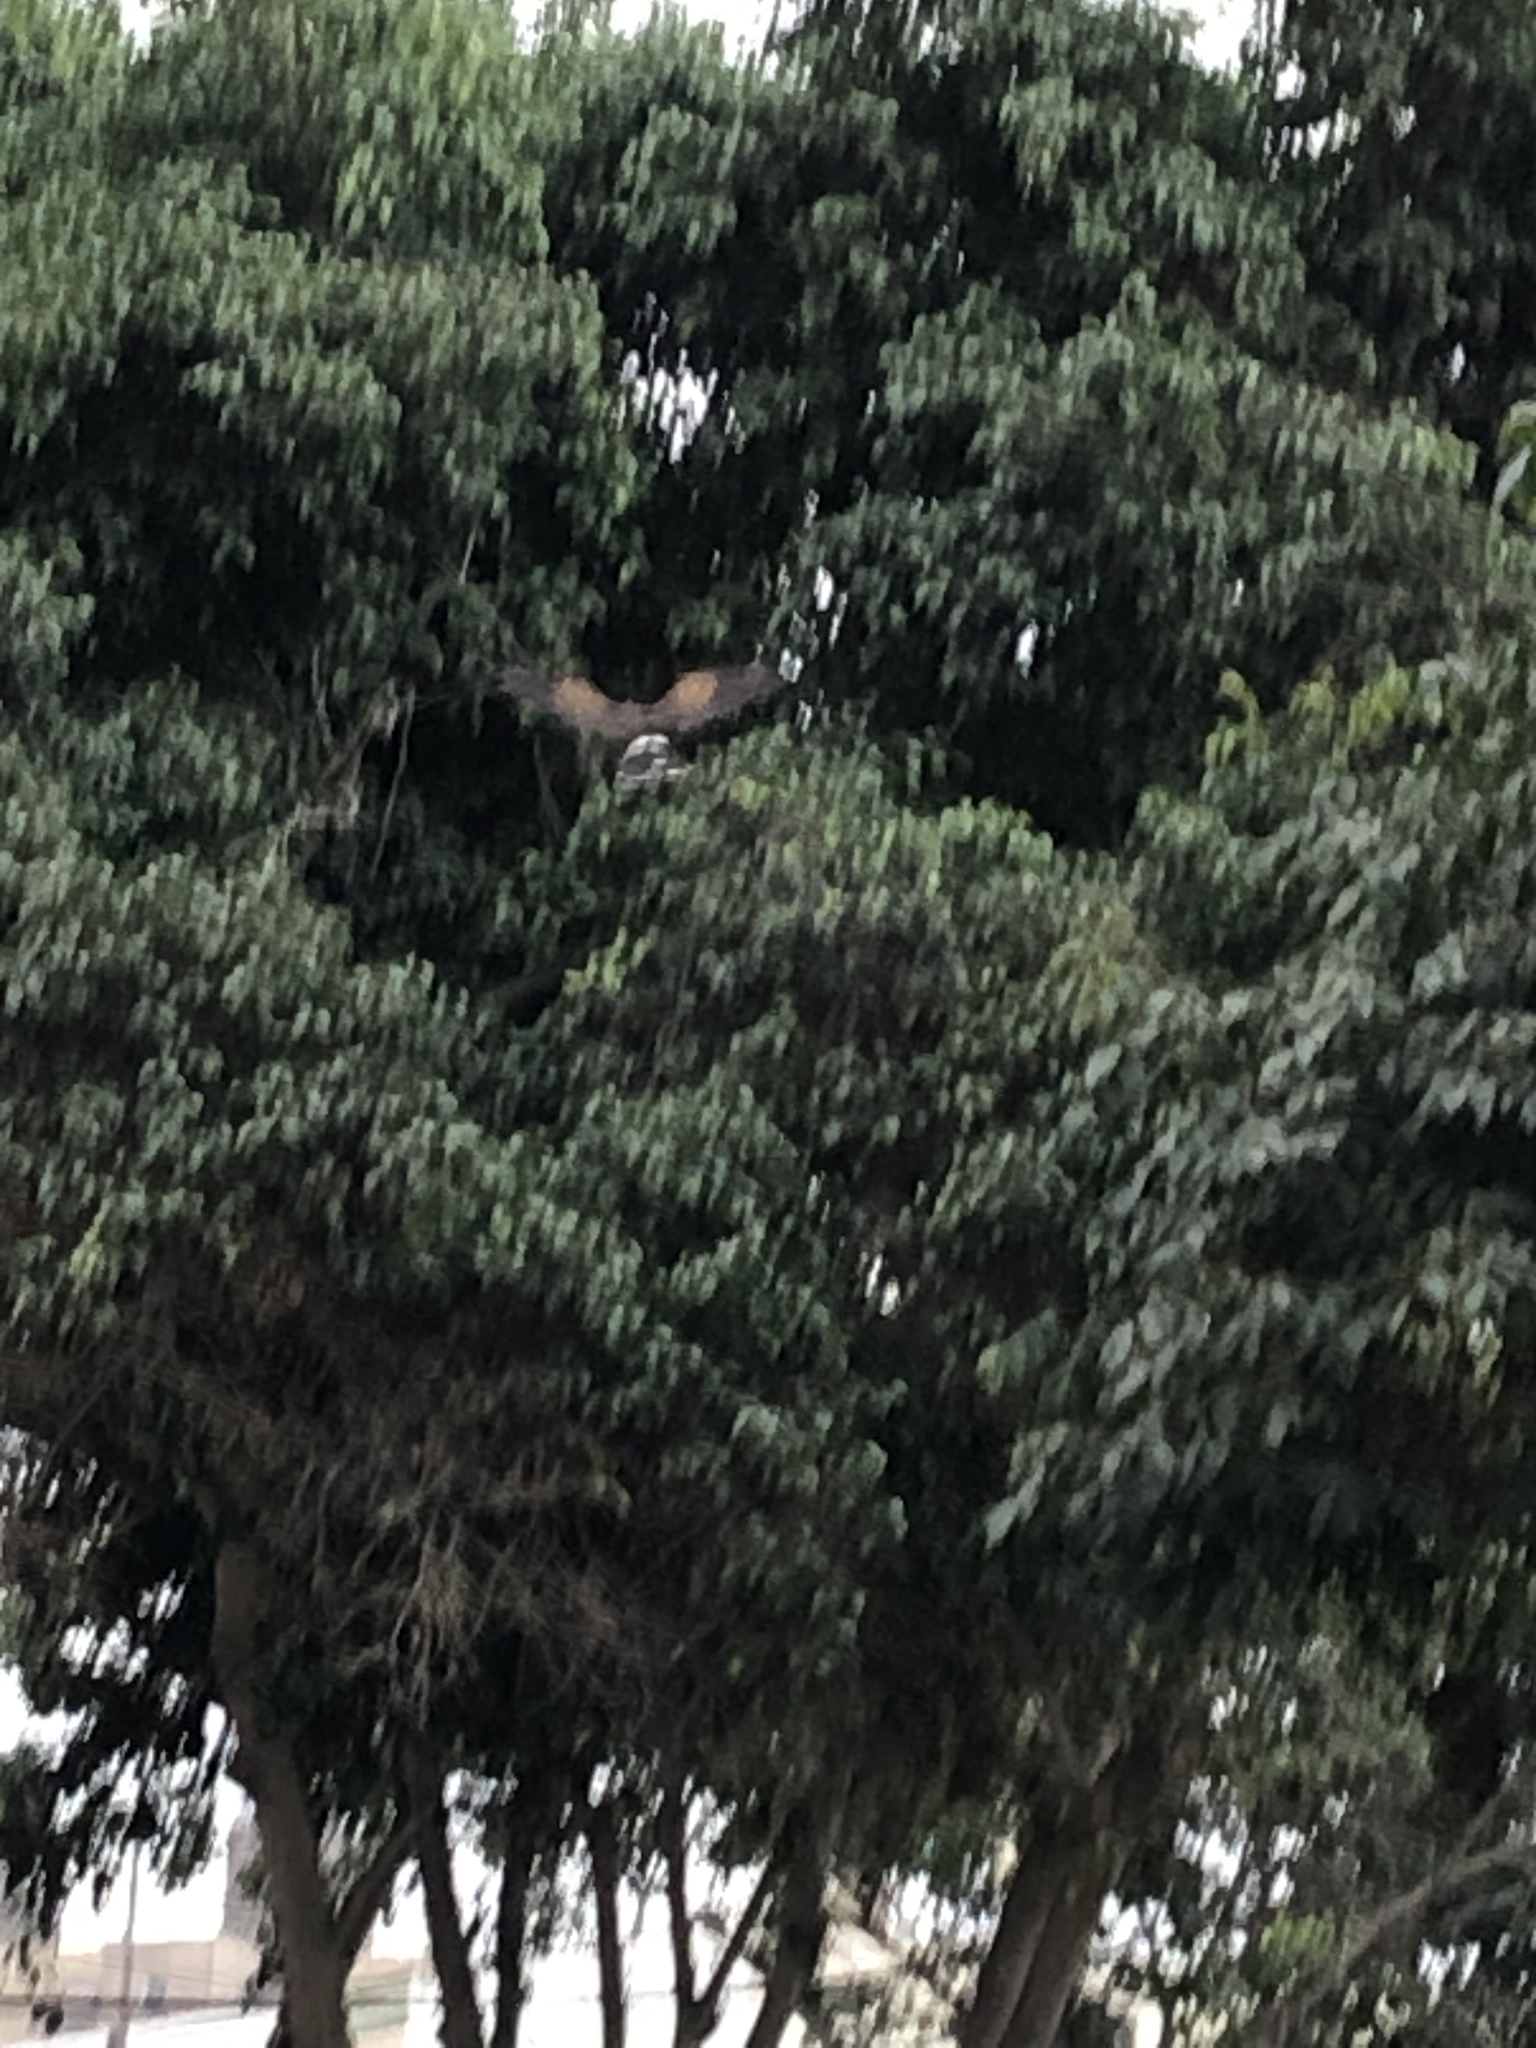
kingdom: Animalia
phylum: Chordata
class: Aves
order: Accipitriformes
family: Accipitridae
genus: Parabuteo
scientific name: Parabuteo unicinctus
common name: Harris's hawk
